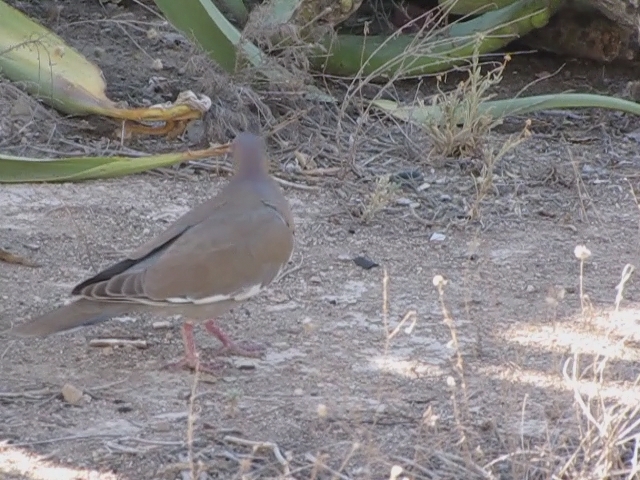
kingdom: Animalia
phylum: Chordata
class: Aves
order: Columbiformes
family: Columbidae
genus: Zenaida
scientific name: Zenaida asiatica
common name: White-winged dove
